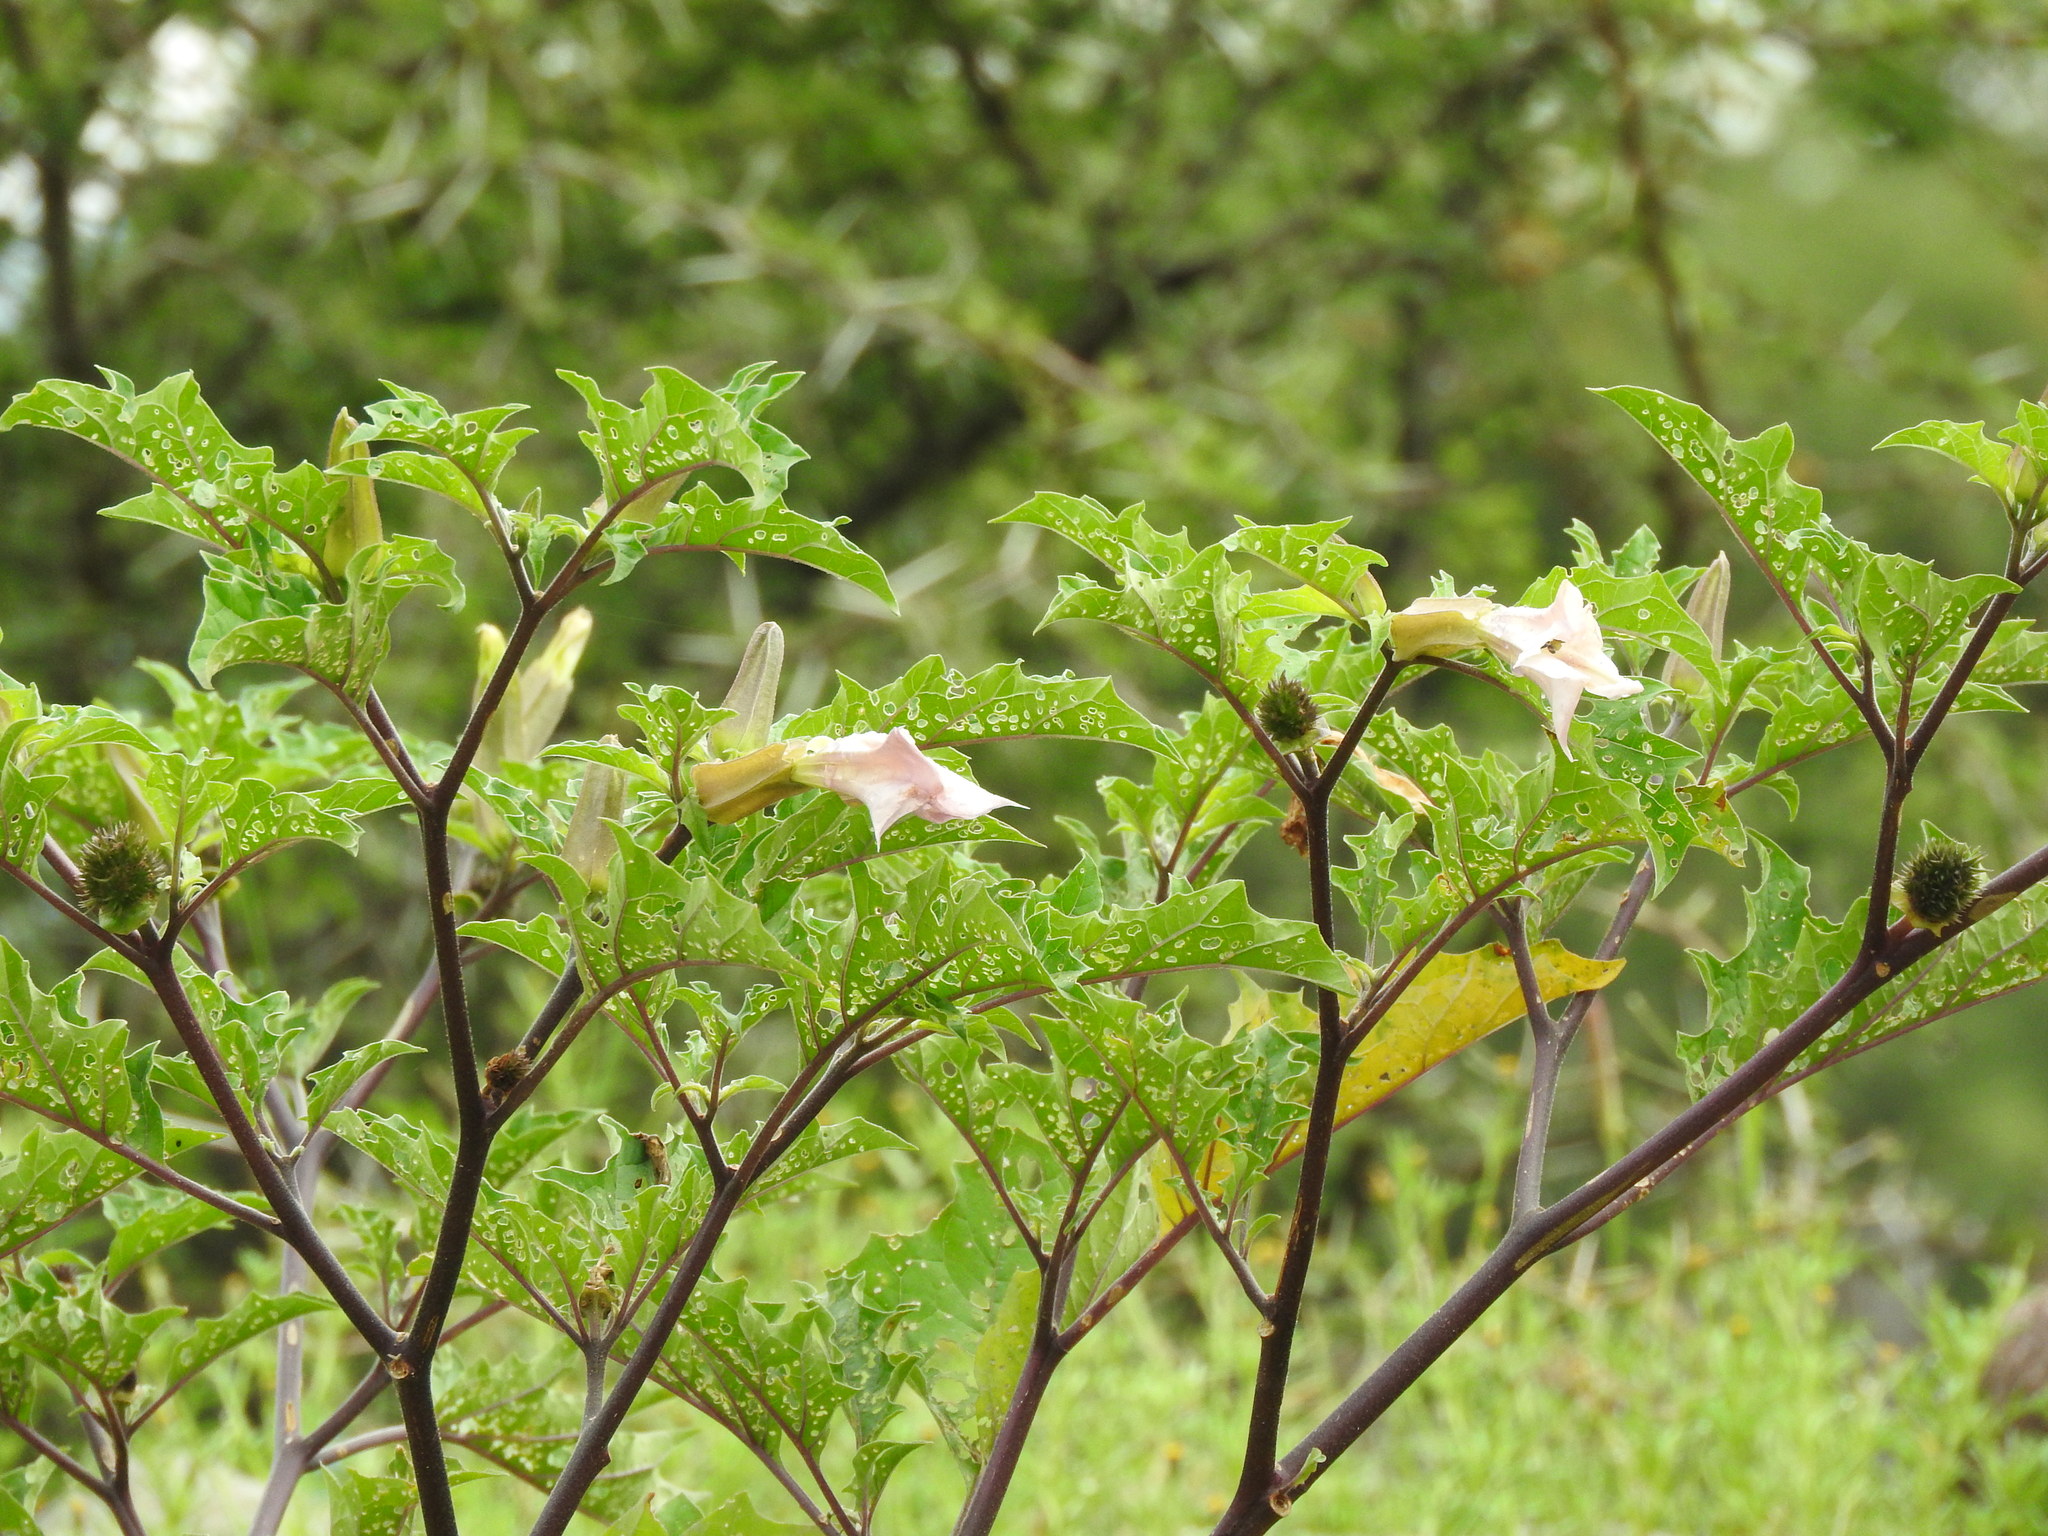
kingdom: Plantae
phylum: Tracheophyta
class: Magnoliopsida
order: Solanales
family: Solanaceae
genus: Datura
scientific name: Datura stramonium
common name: Thorn-apple
